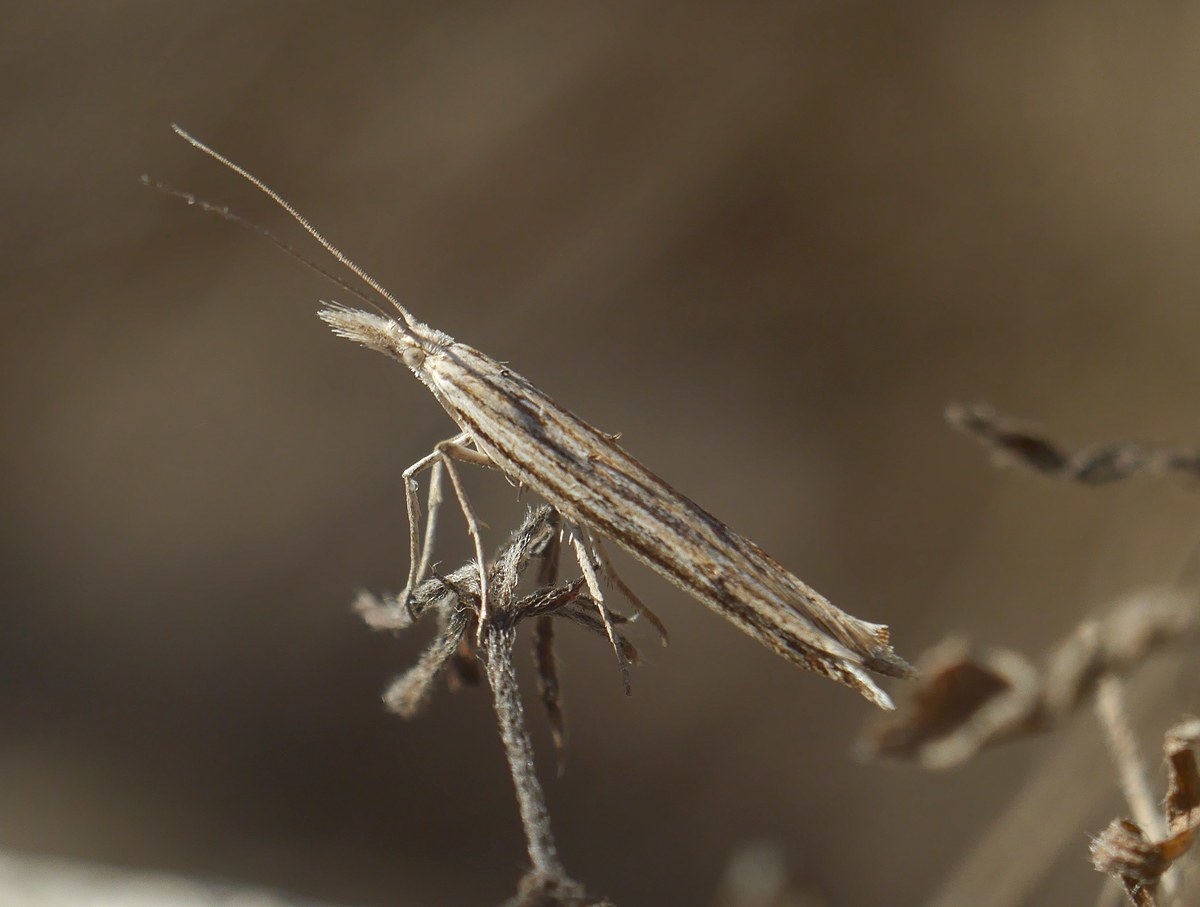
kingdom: Animalia
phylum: Arthropoda
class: Insecta
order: Lepidoptera
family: Ypsolophidae
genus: Ypsolopha
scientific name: Ypsolopha mucronella
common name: Spindle smudge
